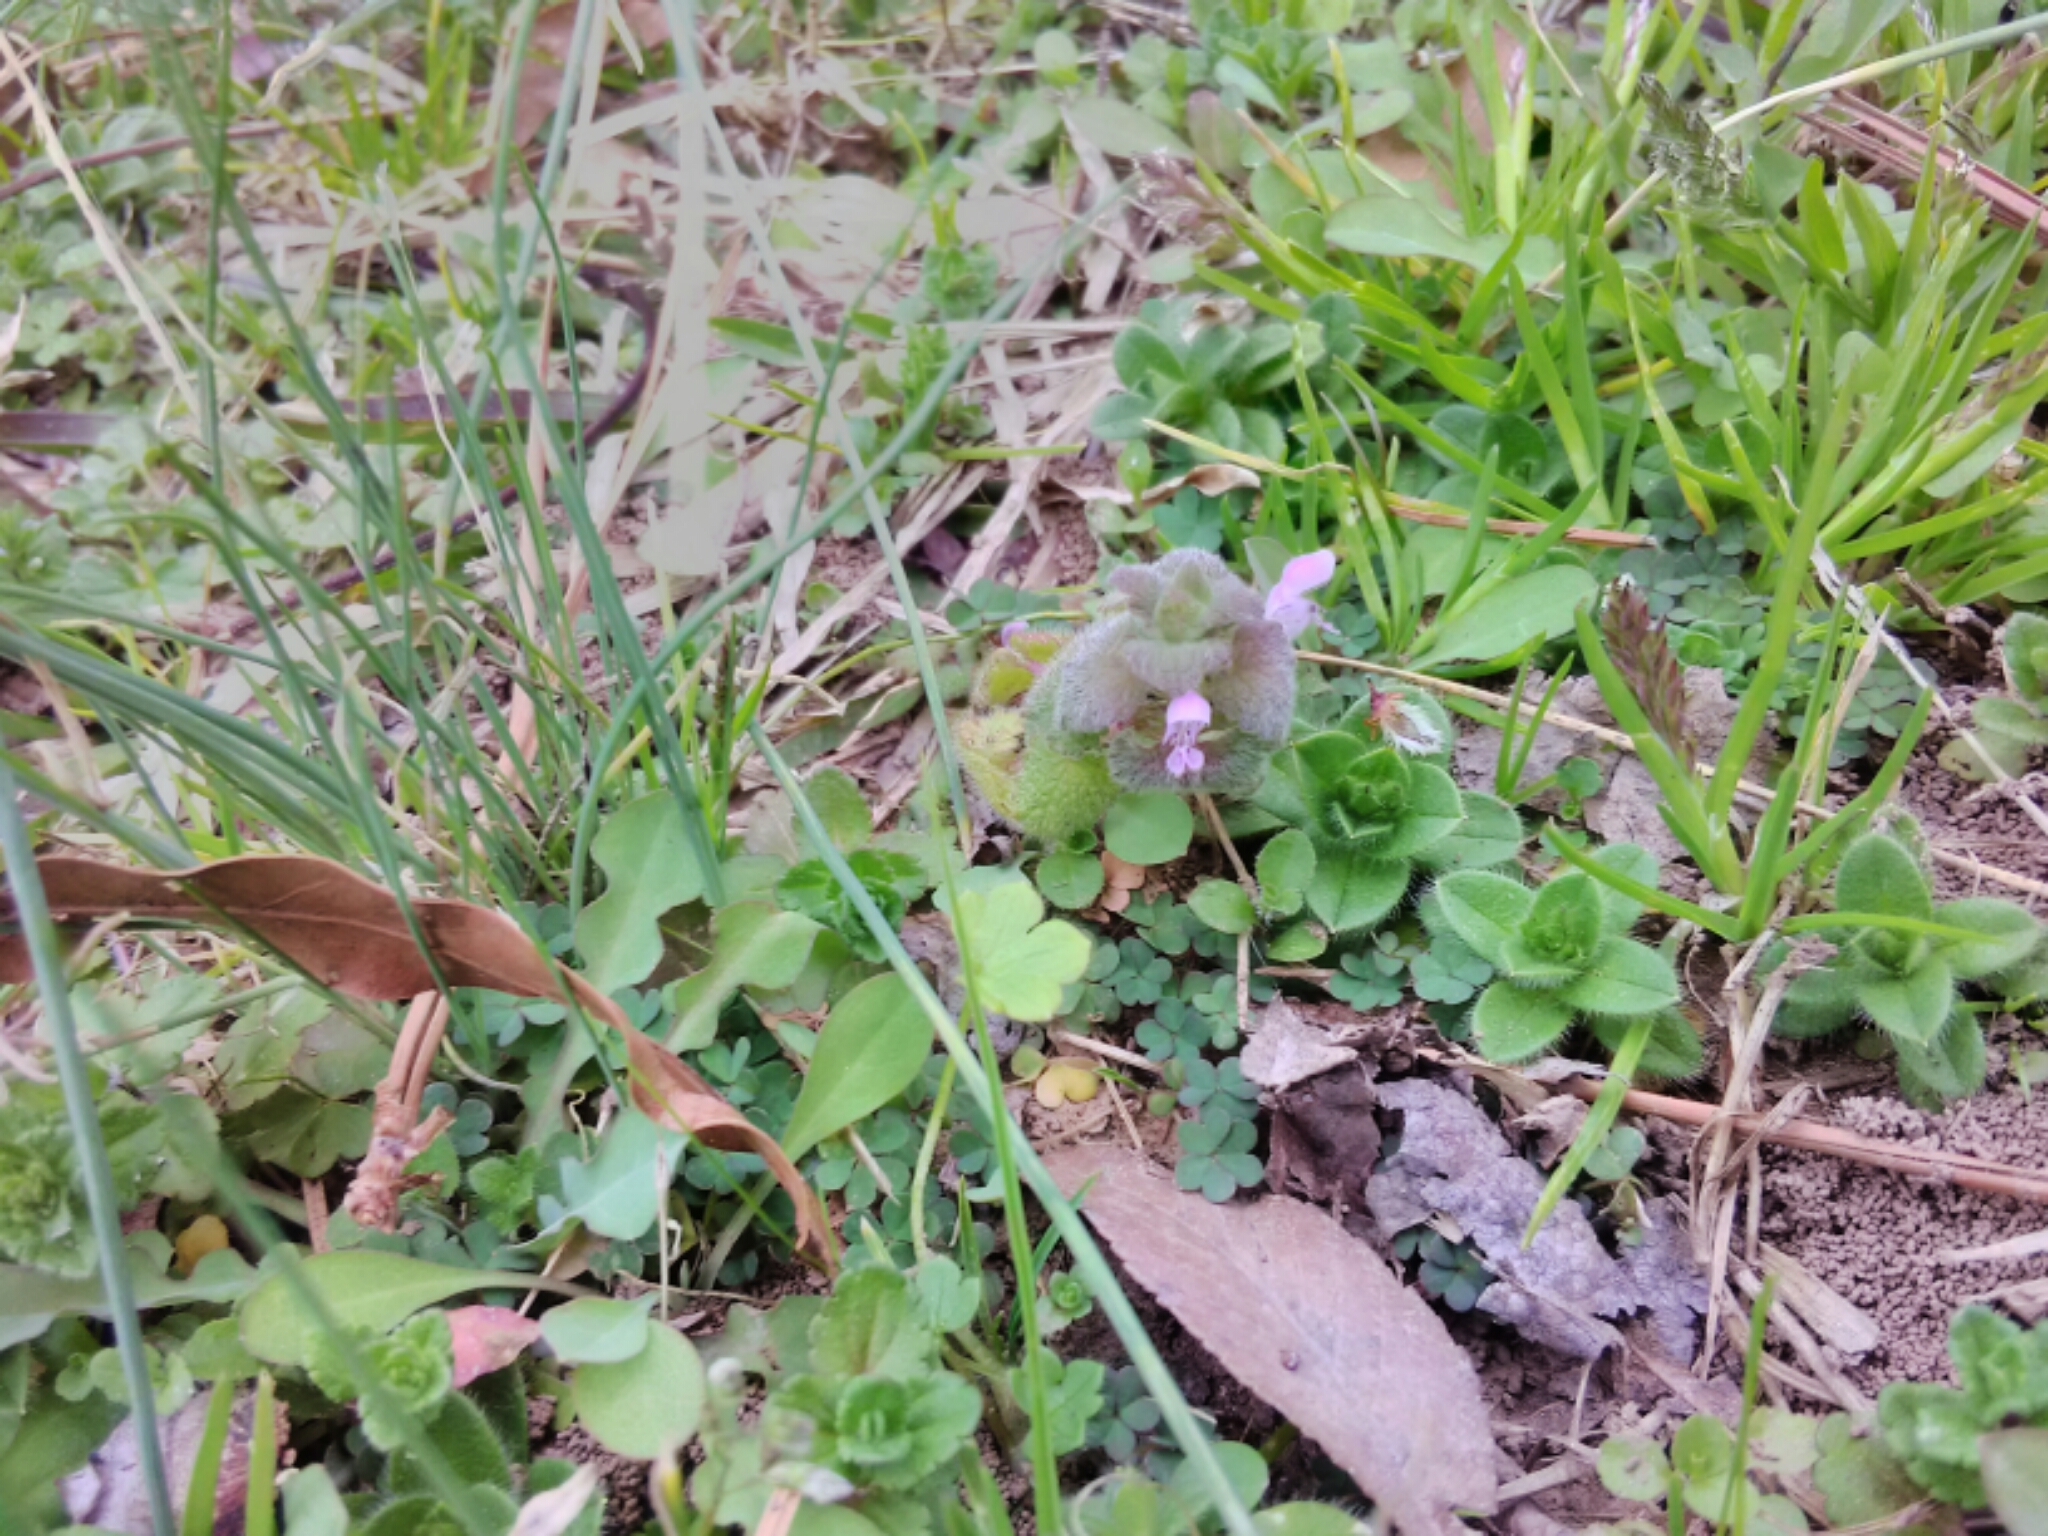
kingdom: Plantae
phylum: Tracheophyta
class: Magnoliopsida
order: Lamiales
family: Lamiaceae
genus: Lamium
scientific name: Lamium purpureum
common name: Red dead-nettle
